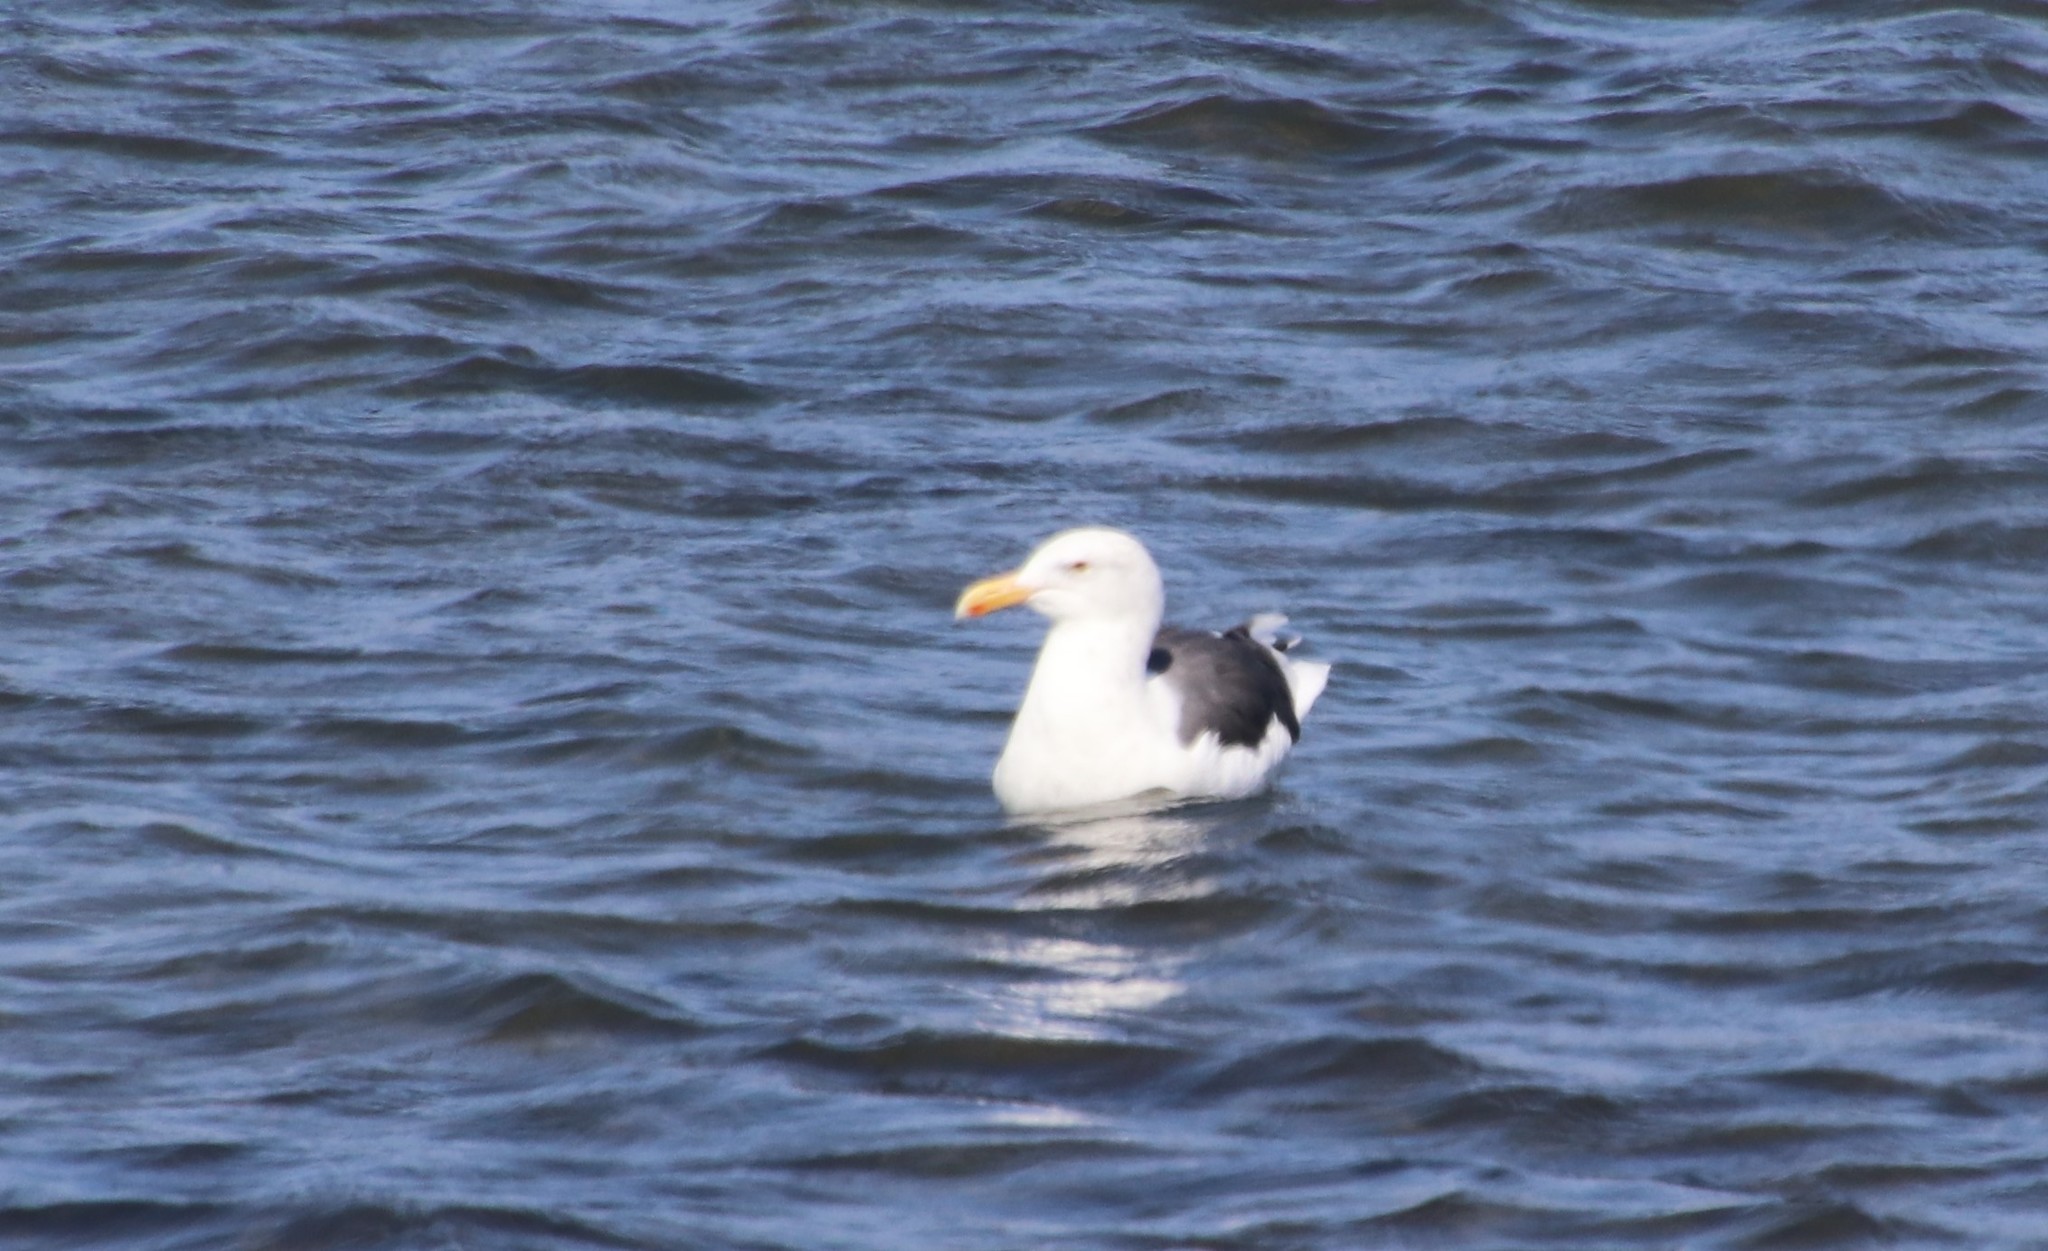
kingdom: Animalia
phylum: Chordata
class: Aves
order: Charadriiformes
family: Laridae
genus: Larus
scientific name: Larus occidentalis
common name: Western gull
